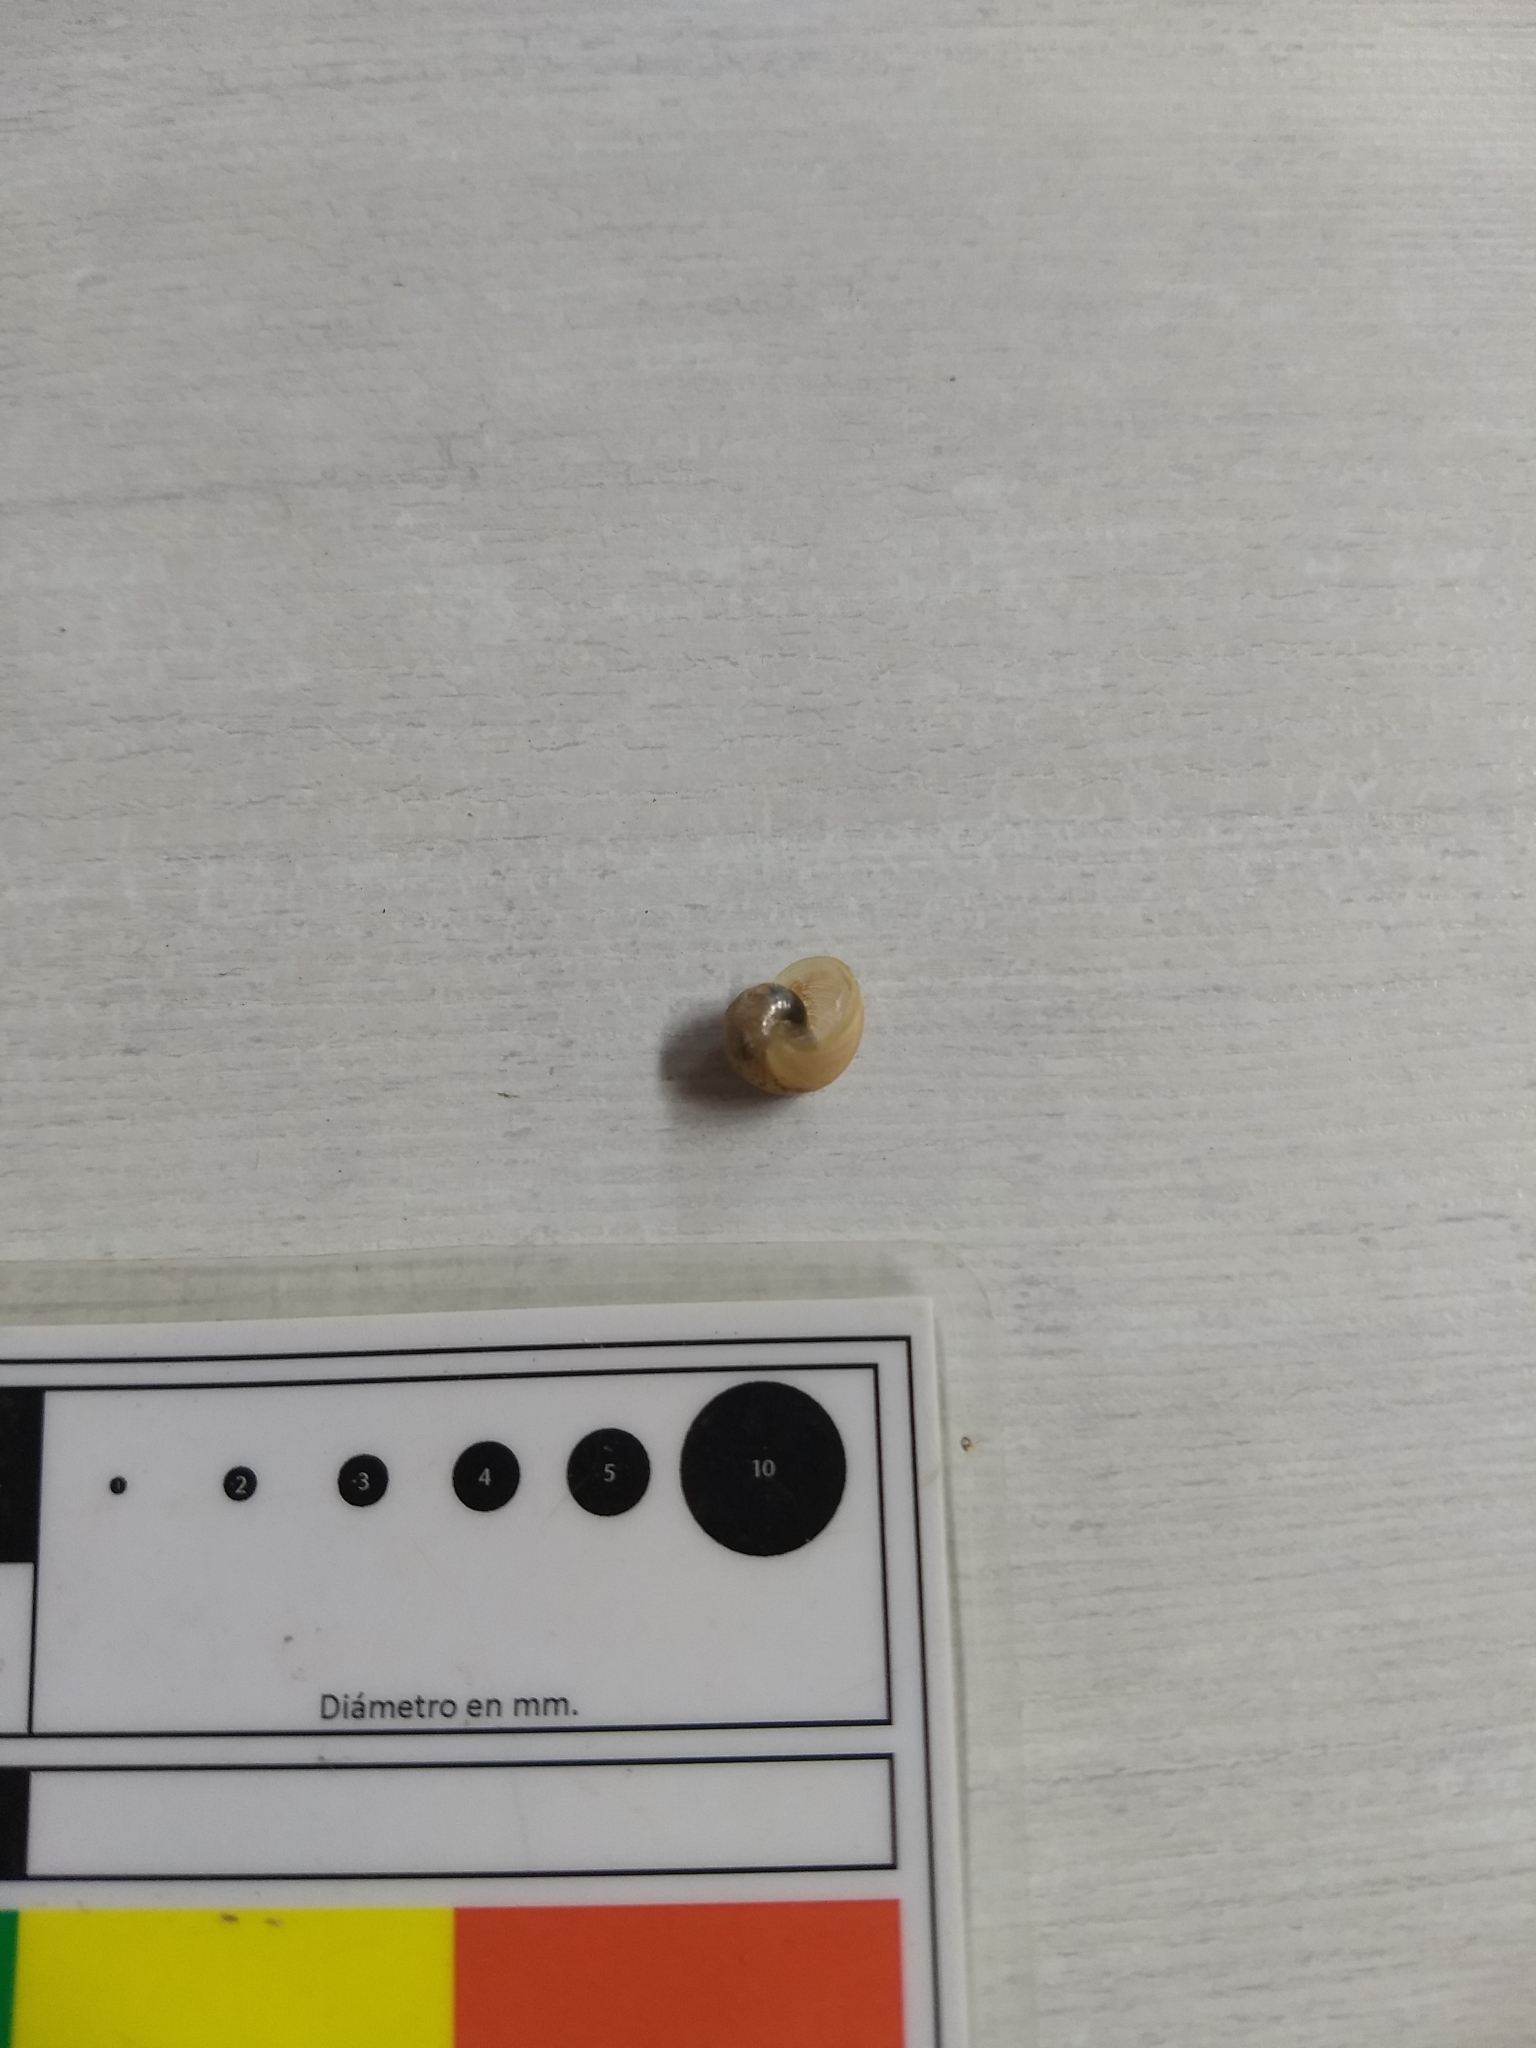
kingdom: Animalia
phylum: Mollusca
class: Gastropoda
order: Stylommatophora
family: Helicidae
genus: Cornu
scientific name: Cornu aspersum
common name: Brown garden snail
